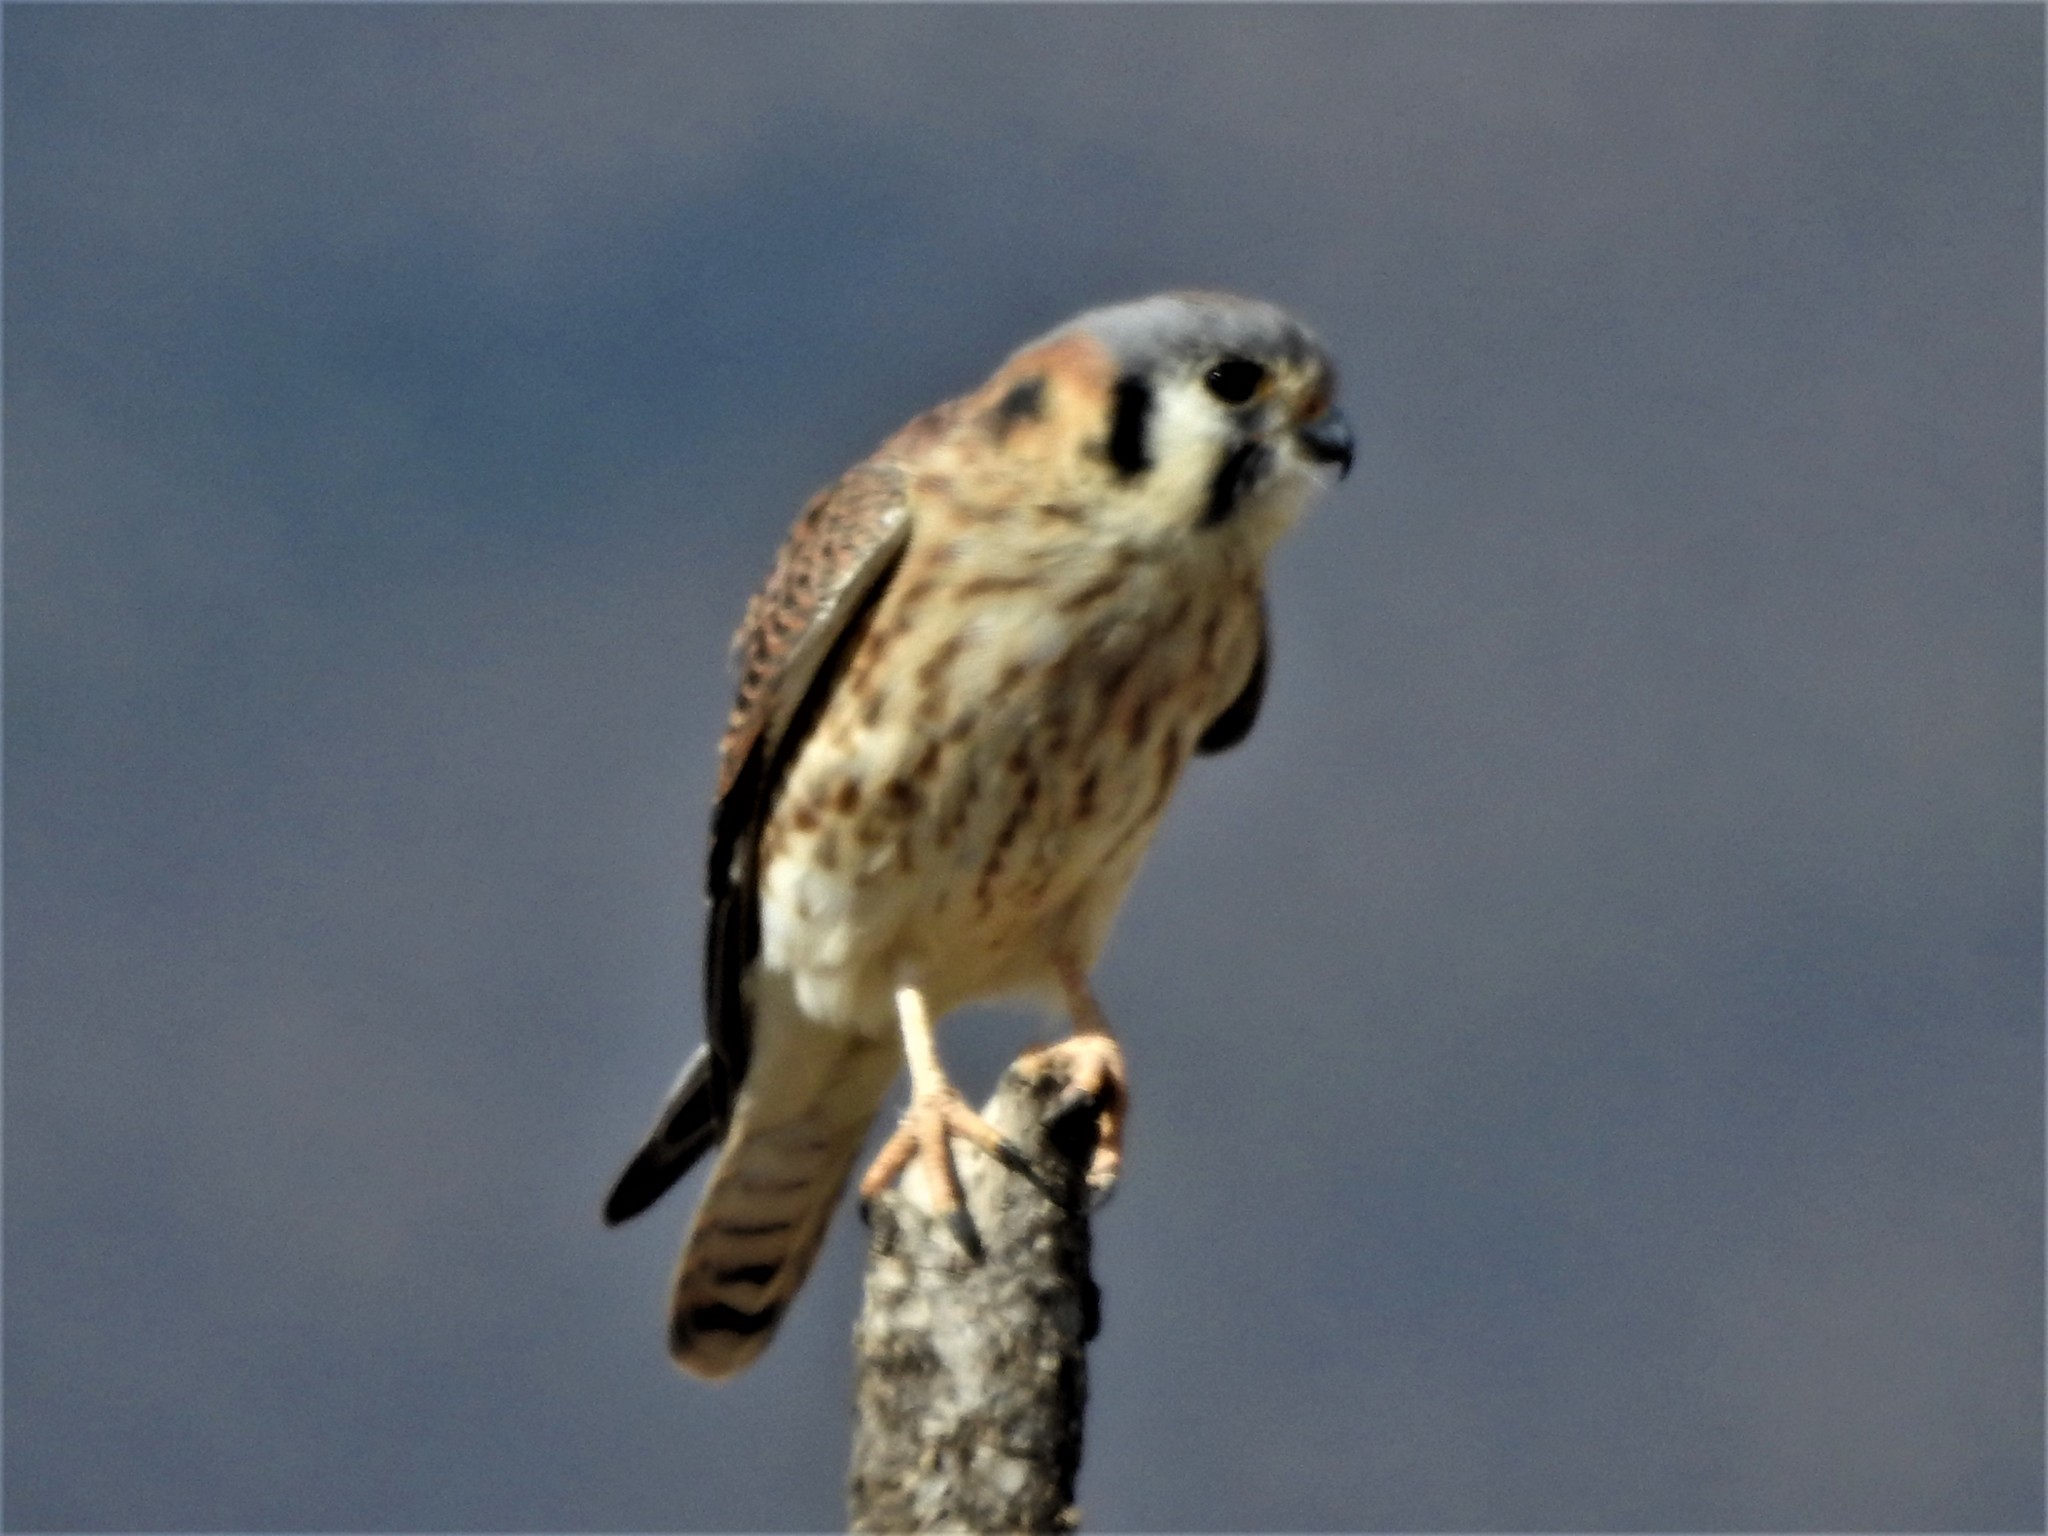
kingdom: Animalia
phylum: Chordata
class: Aves
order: Falconiformes
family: Falconidae
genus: Falco
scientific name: Falco sparverius
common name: American kestrel
